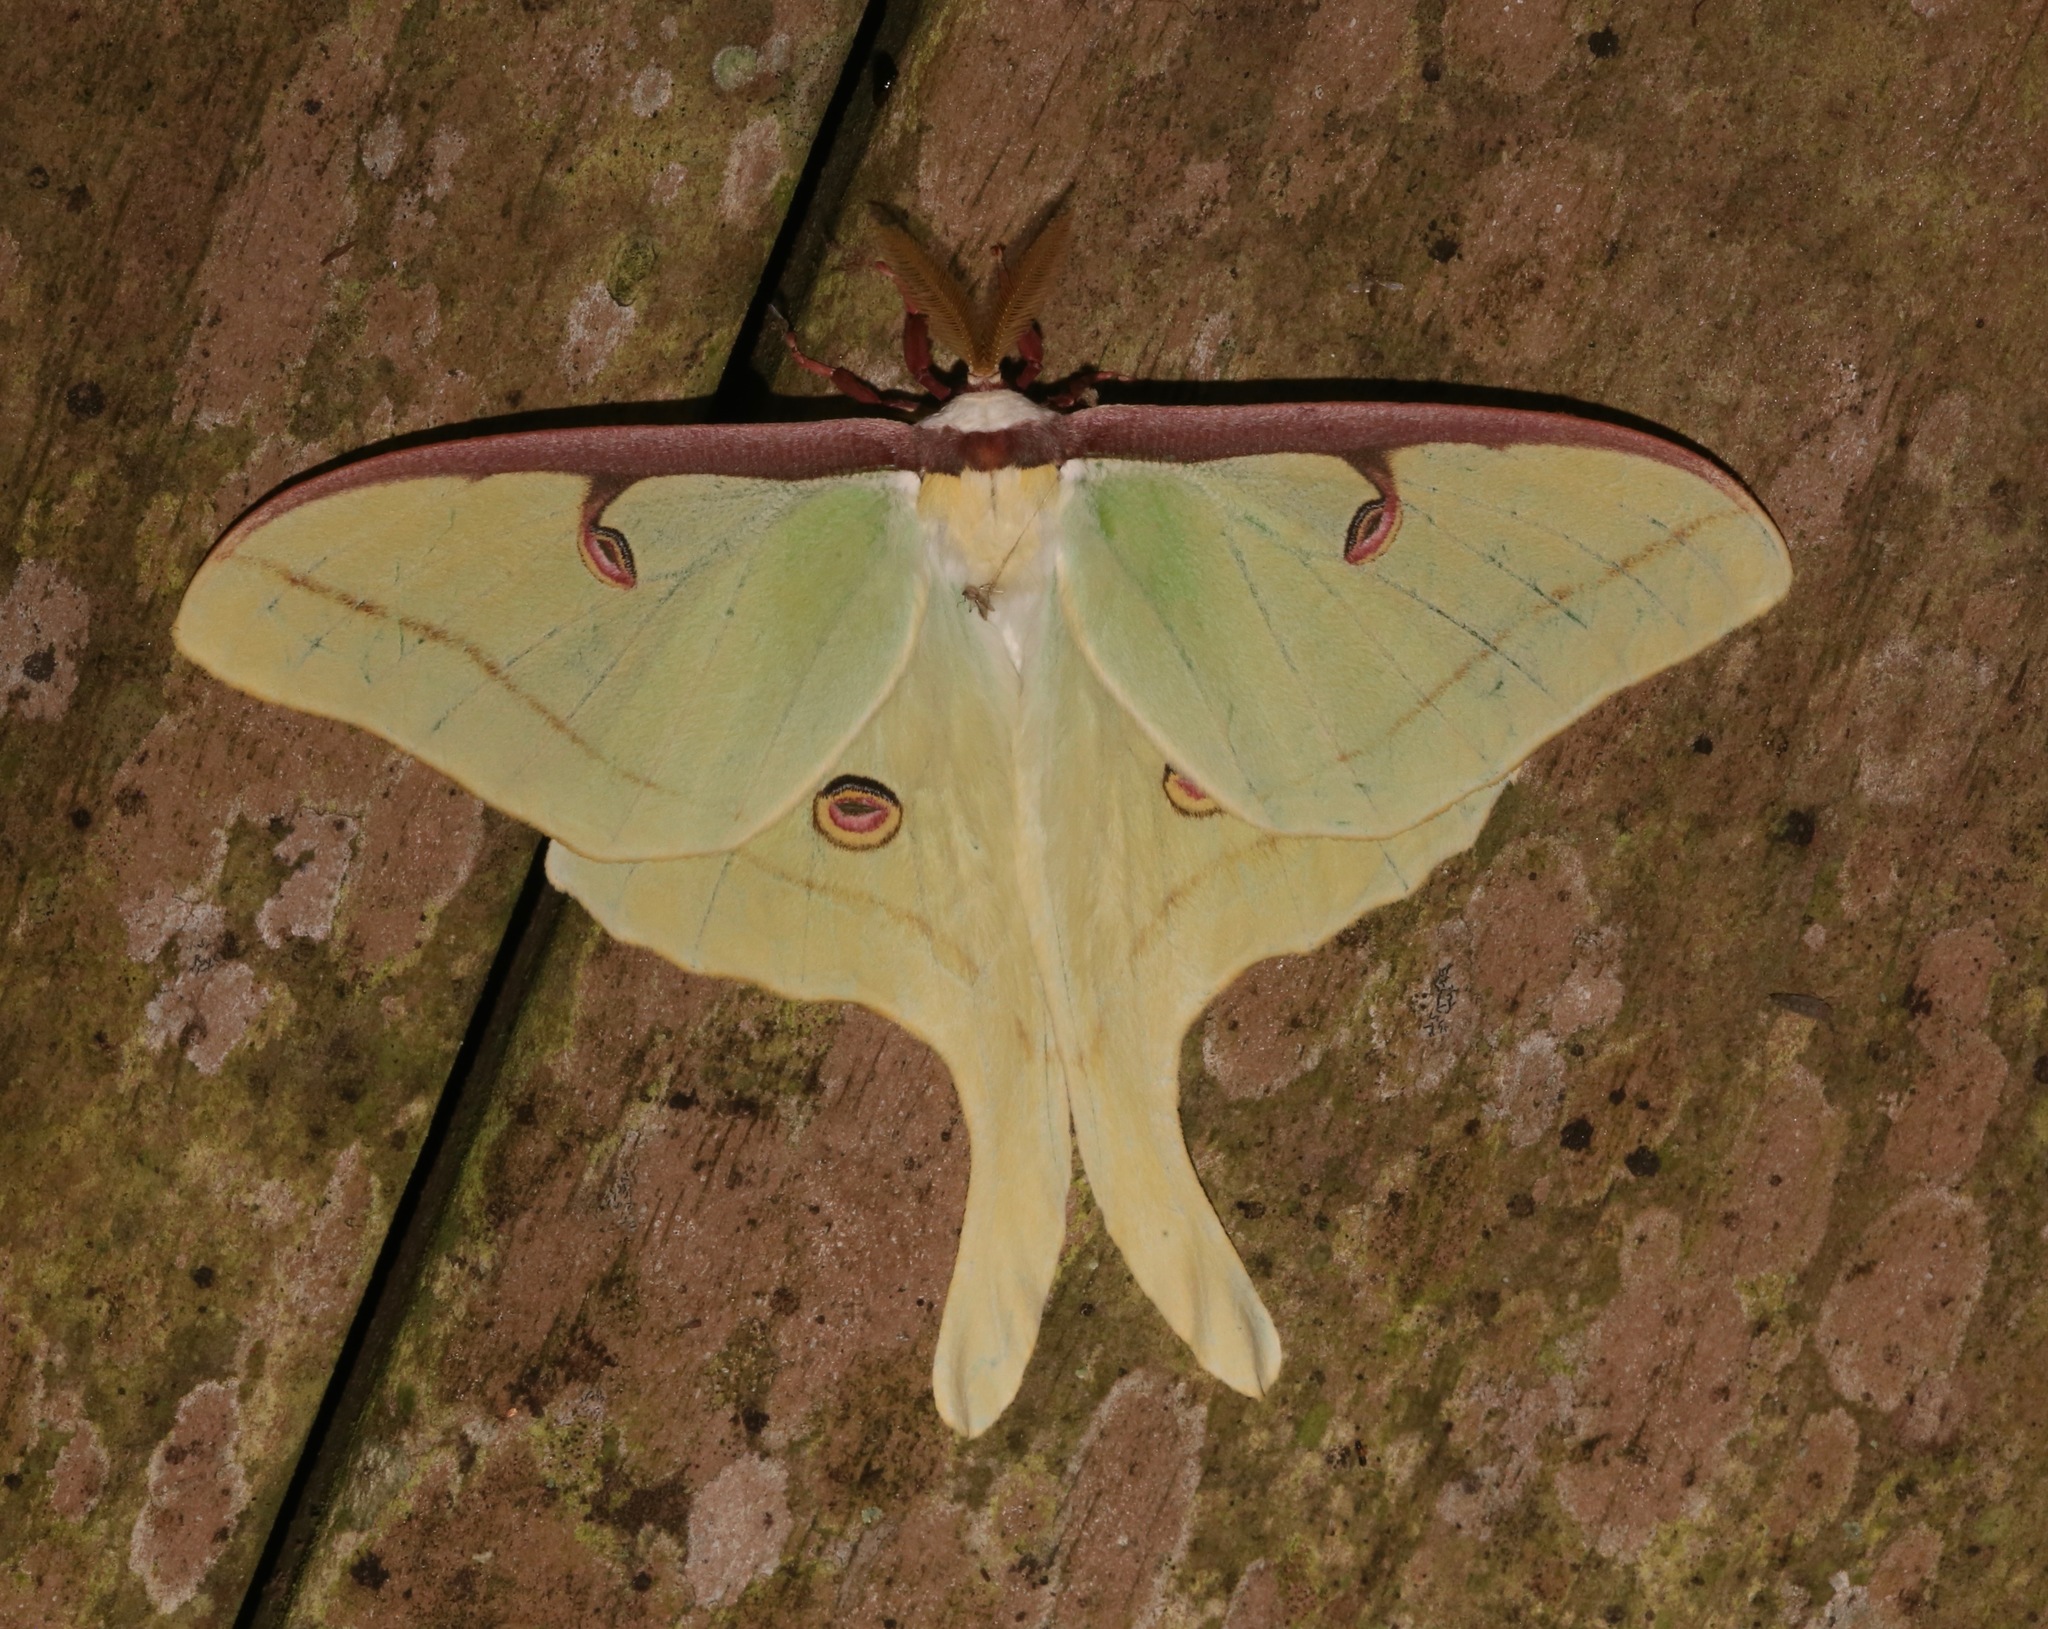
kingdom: Animalia
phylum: Arthropoda
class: Insecta
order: Lepidoptera
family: Saturniidae
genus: Actias
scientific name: Actias luna
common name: Luna moth
